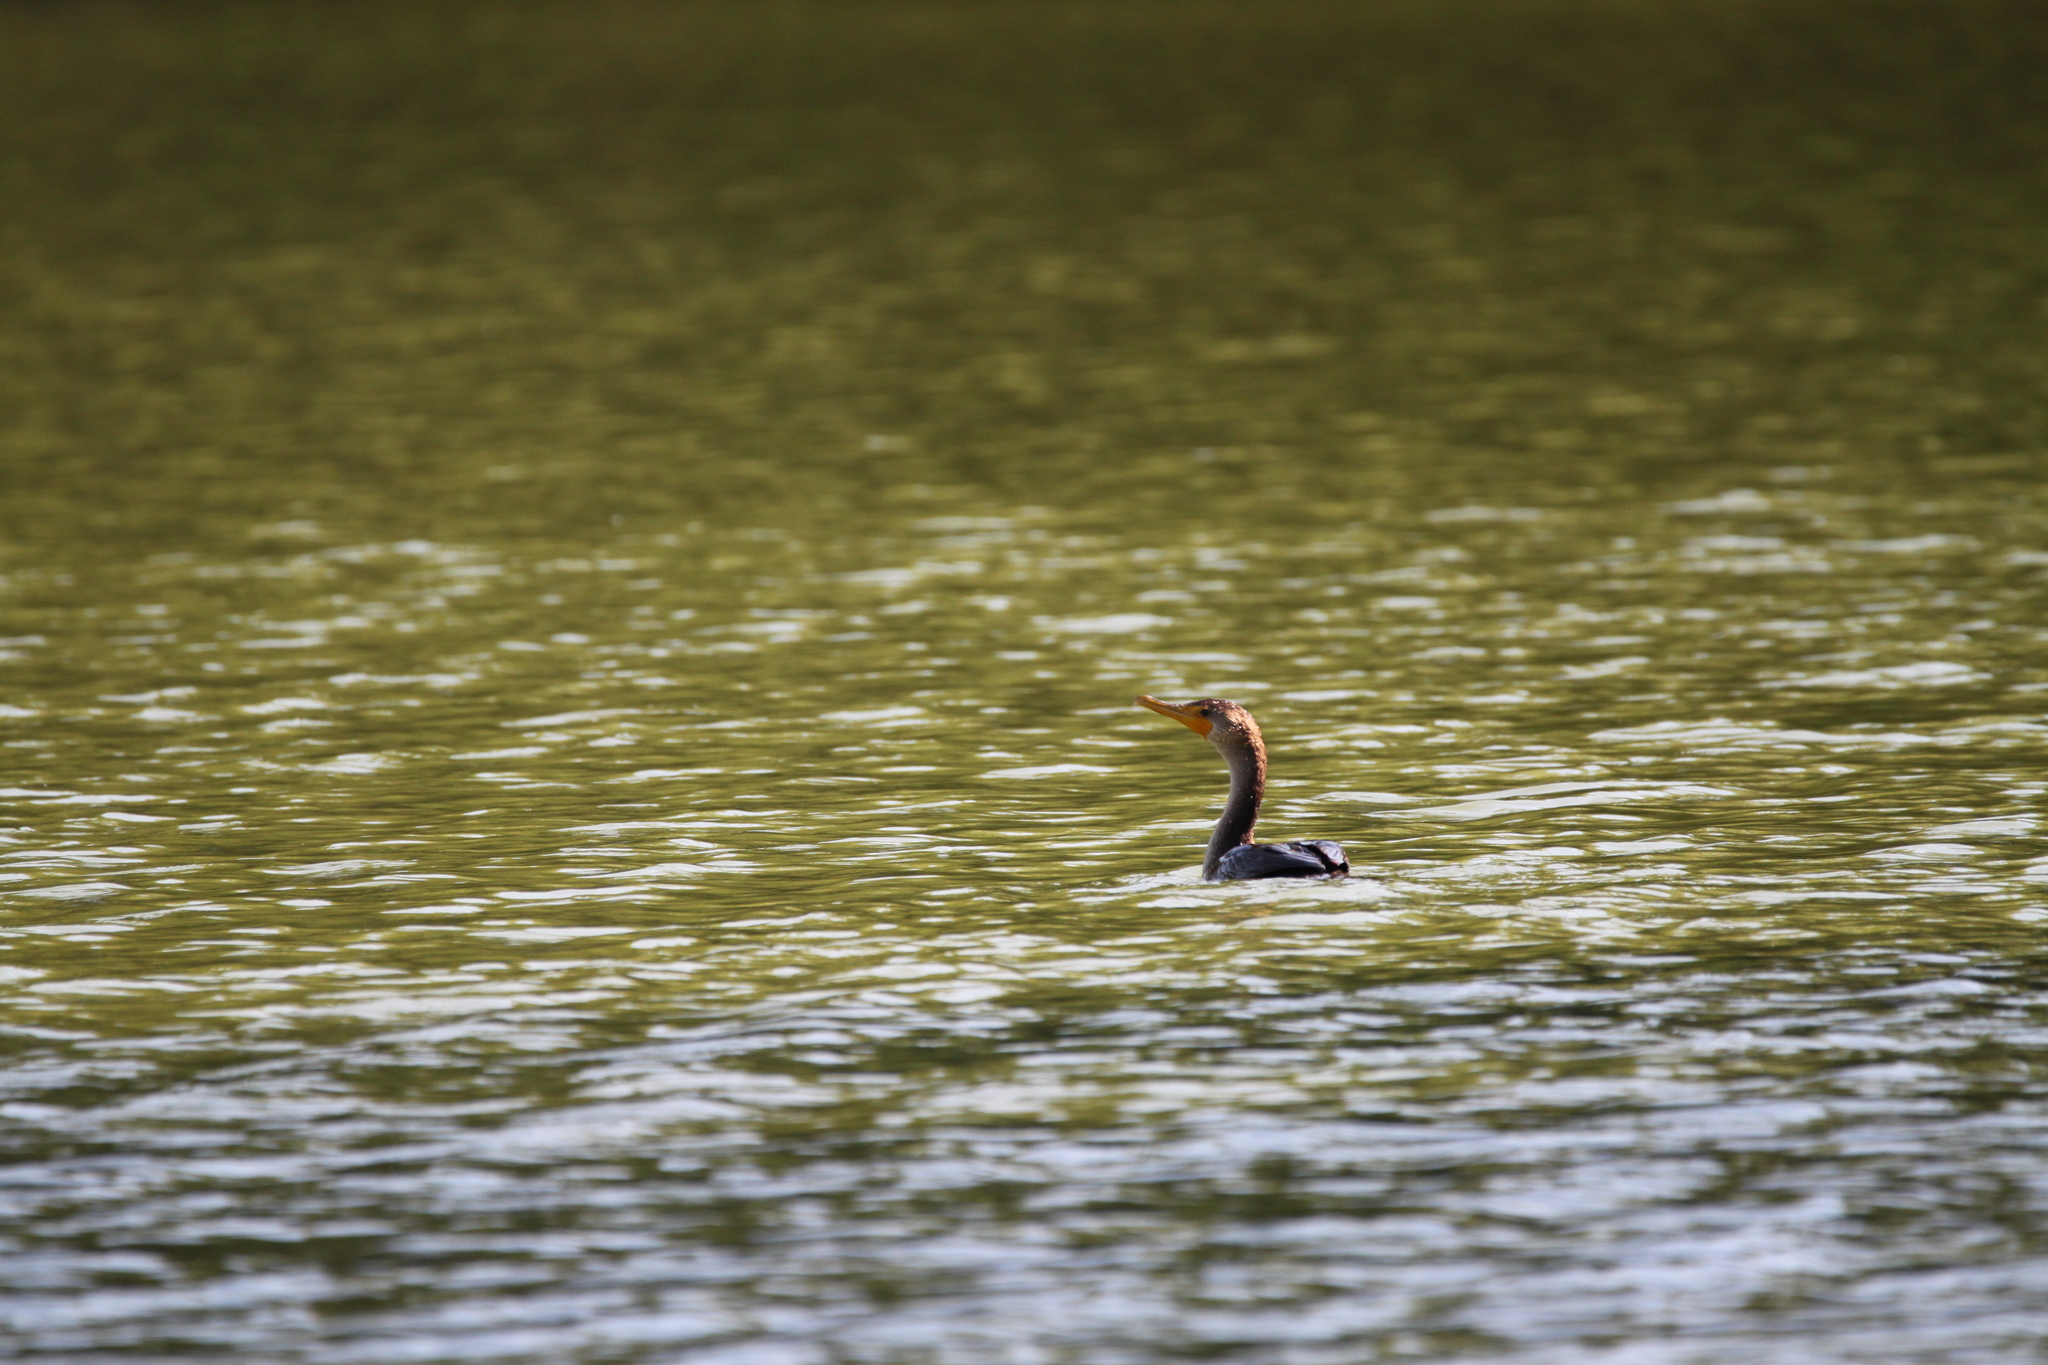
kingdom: Animalia
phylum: Chordata
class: Aves
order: Suliformes
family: Phalacrocoracidae
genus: Phalacrocorax
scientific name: Phalacrocorax auritus
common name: Double-crested cormorant
